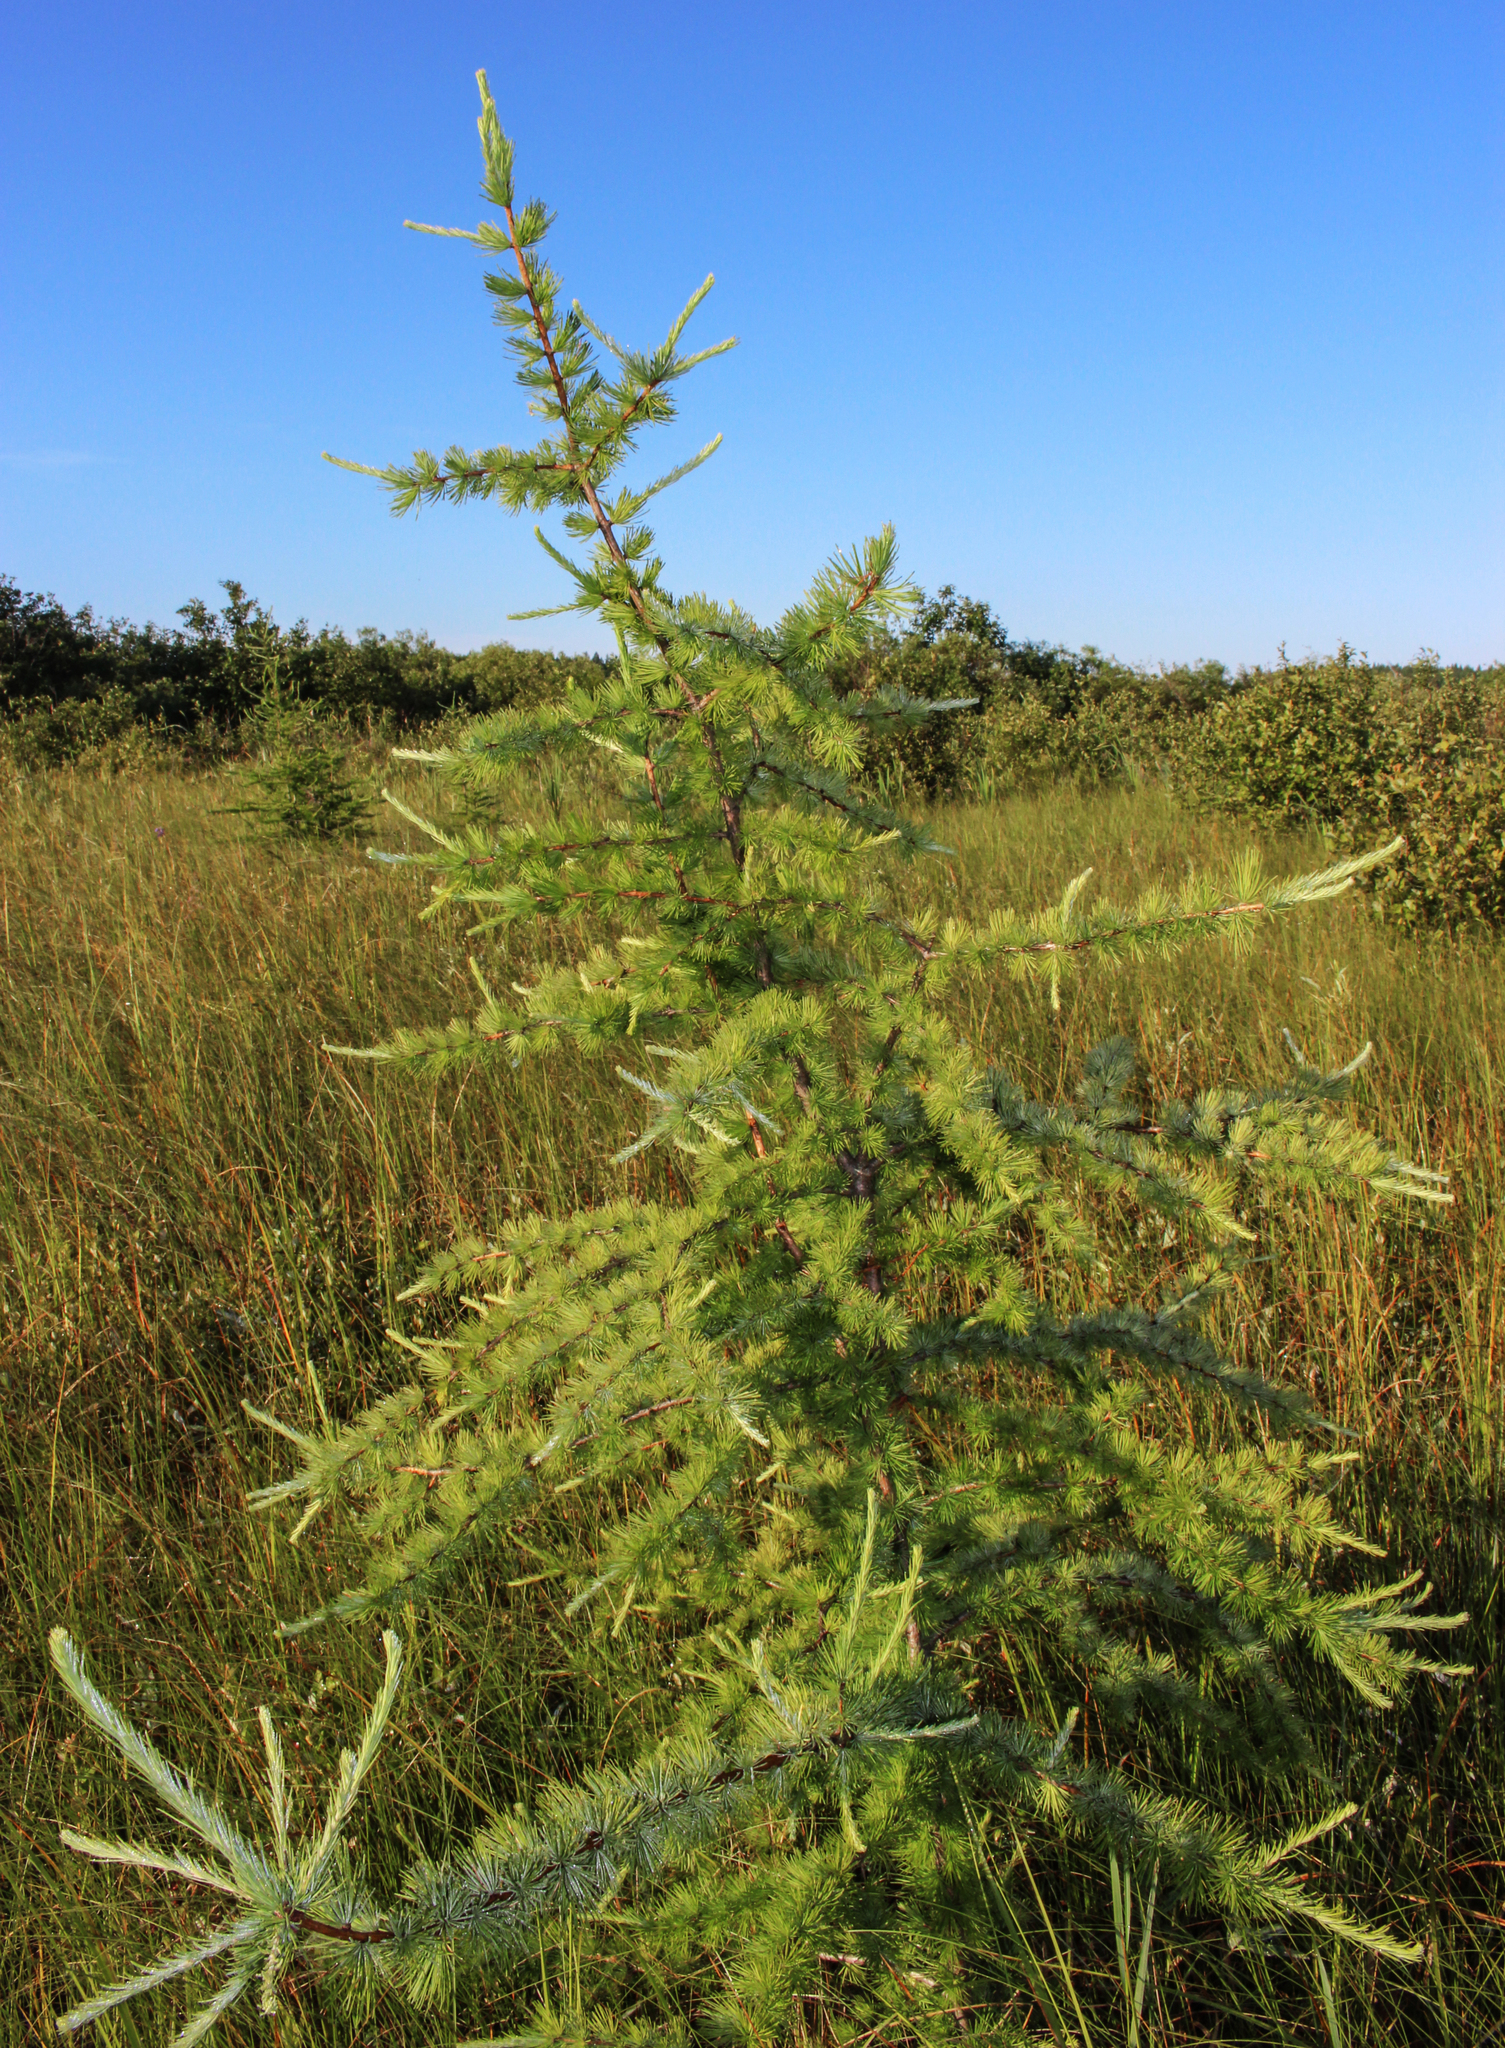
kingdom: Plantae
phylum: Tracheophyta
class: Pinopsida
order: Pinales
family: Pinaceae
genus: Larix
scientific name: Larix laricina
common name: American larch
